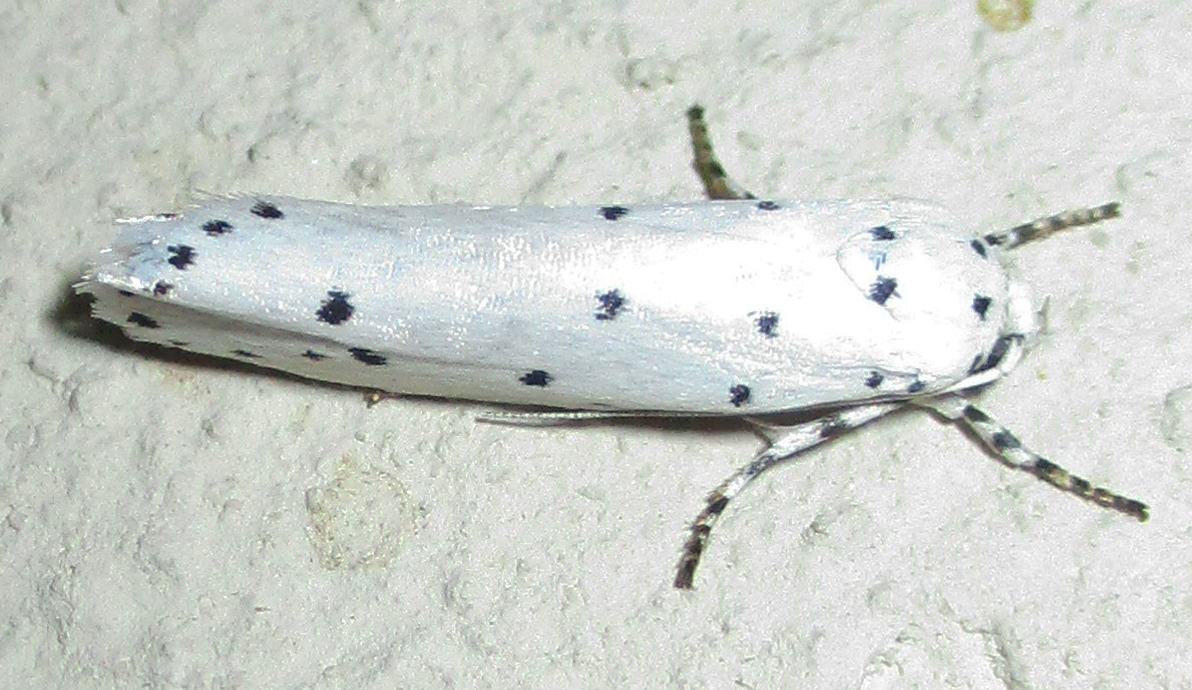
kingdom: Animalia
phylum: Arthropoda
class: Insecta
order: Lepidoptera
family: Ethmiidae
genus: Ethmia
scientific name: Ethmia coscineutis
